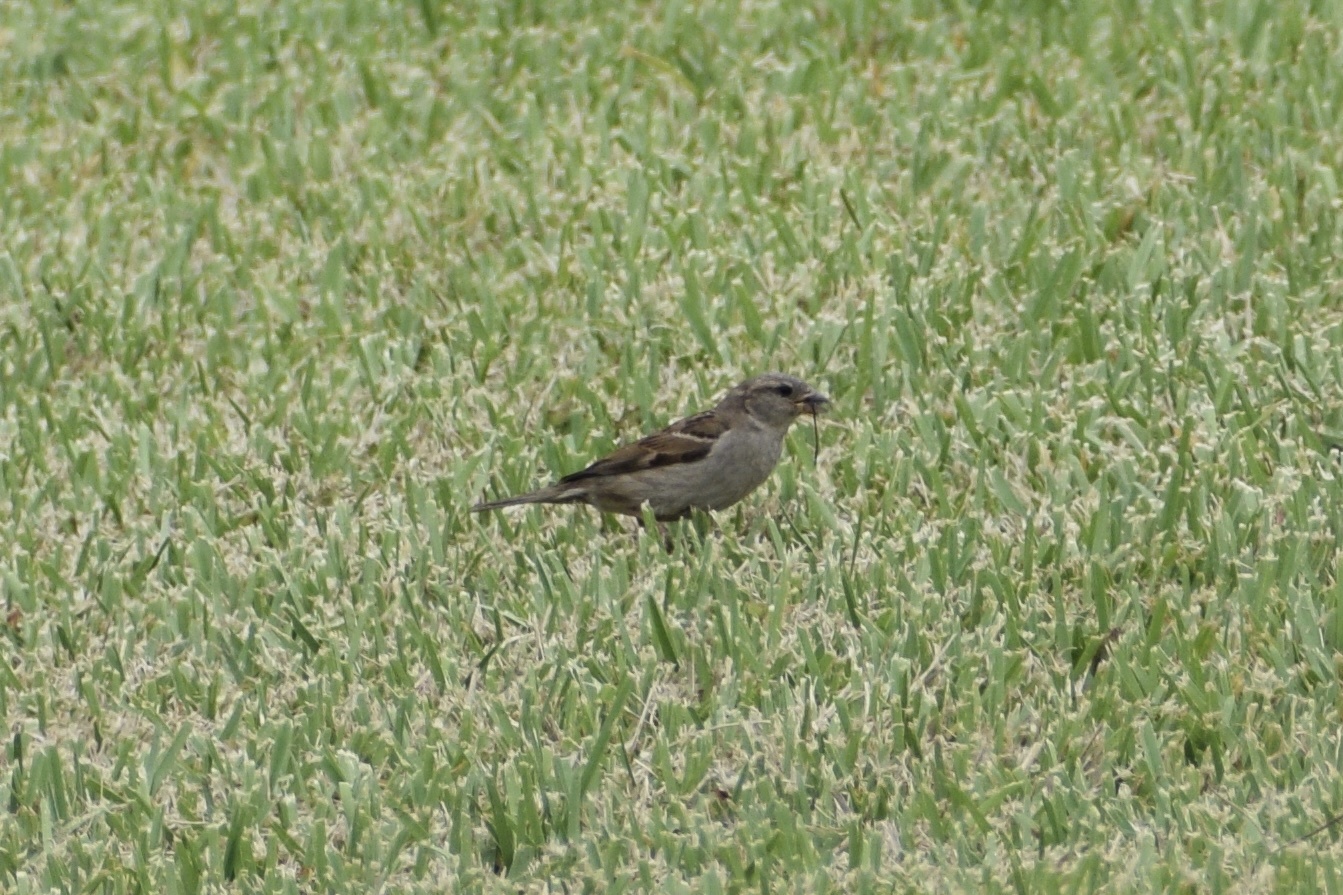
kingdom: Animalia
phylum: Chordata
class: Aves
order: Passeriformes
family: Passeridae
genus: Passer
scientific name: Passer domesticus
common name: House sparrow
